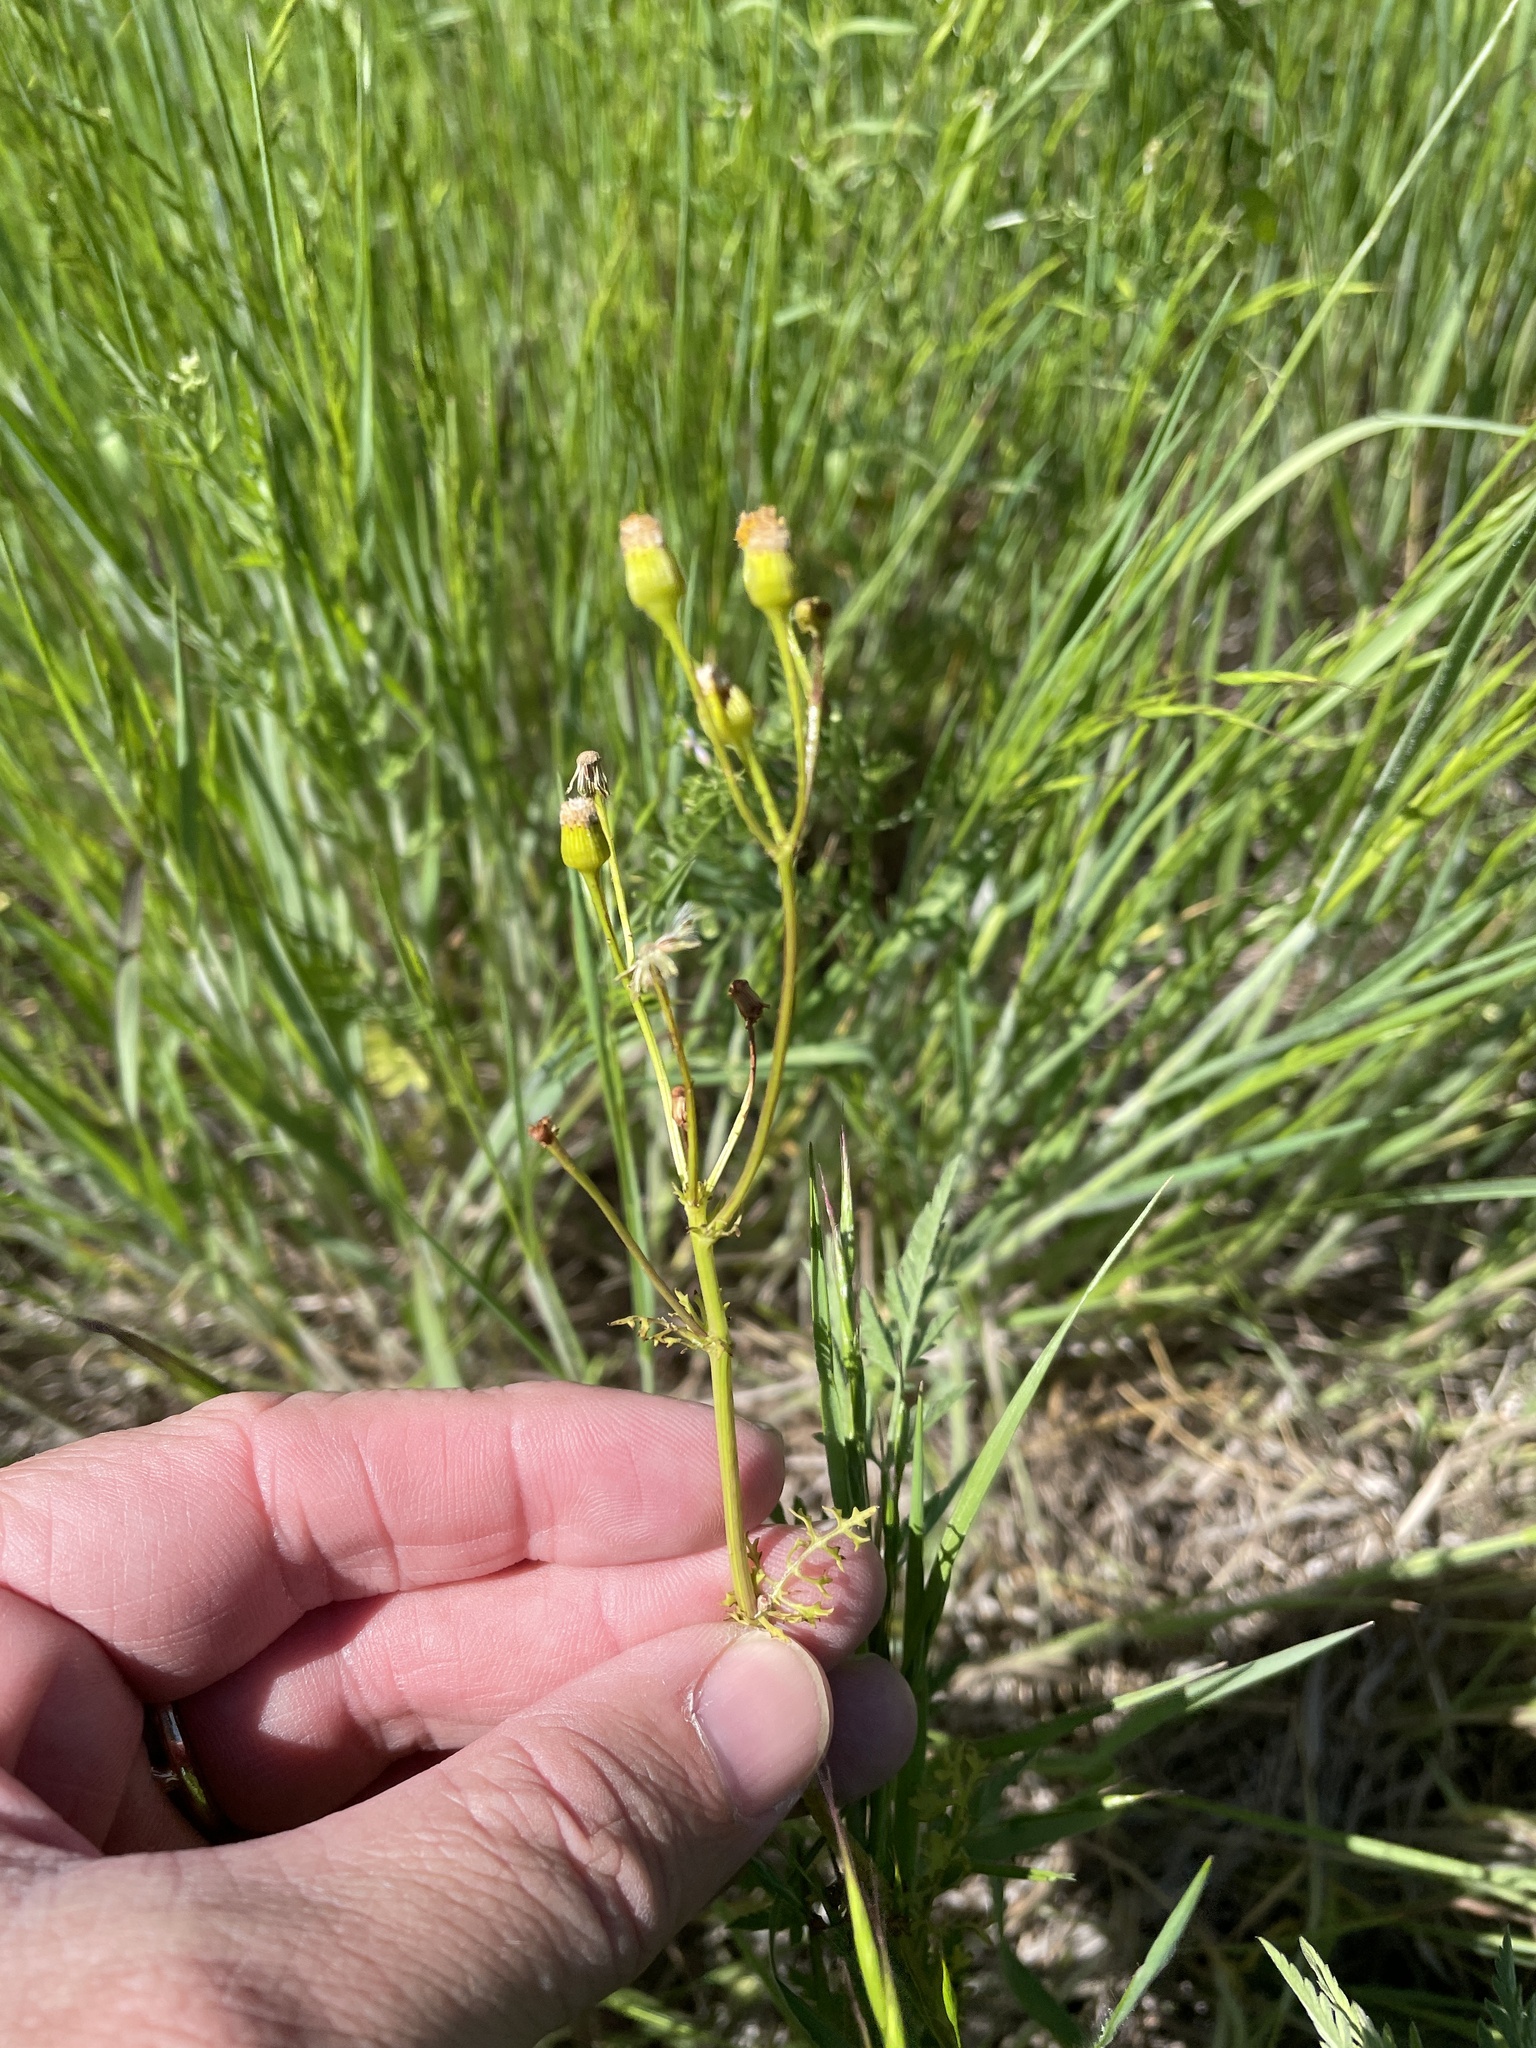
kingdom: Plantae
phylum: Tracheophyta
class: Magnoliopsida
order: Asterales
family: Asteraceae
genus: Packera
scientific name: Packera tampicana
